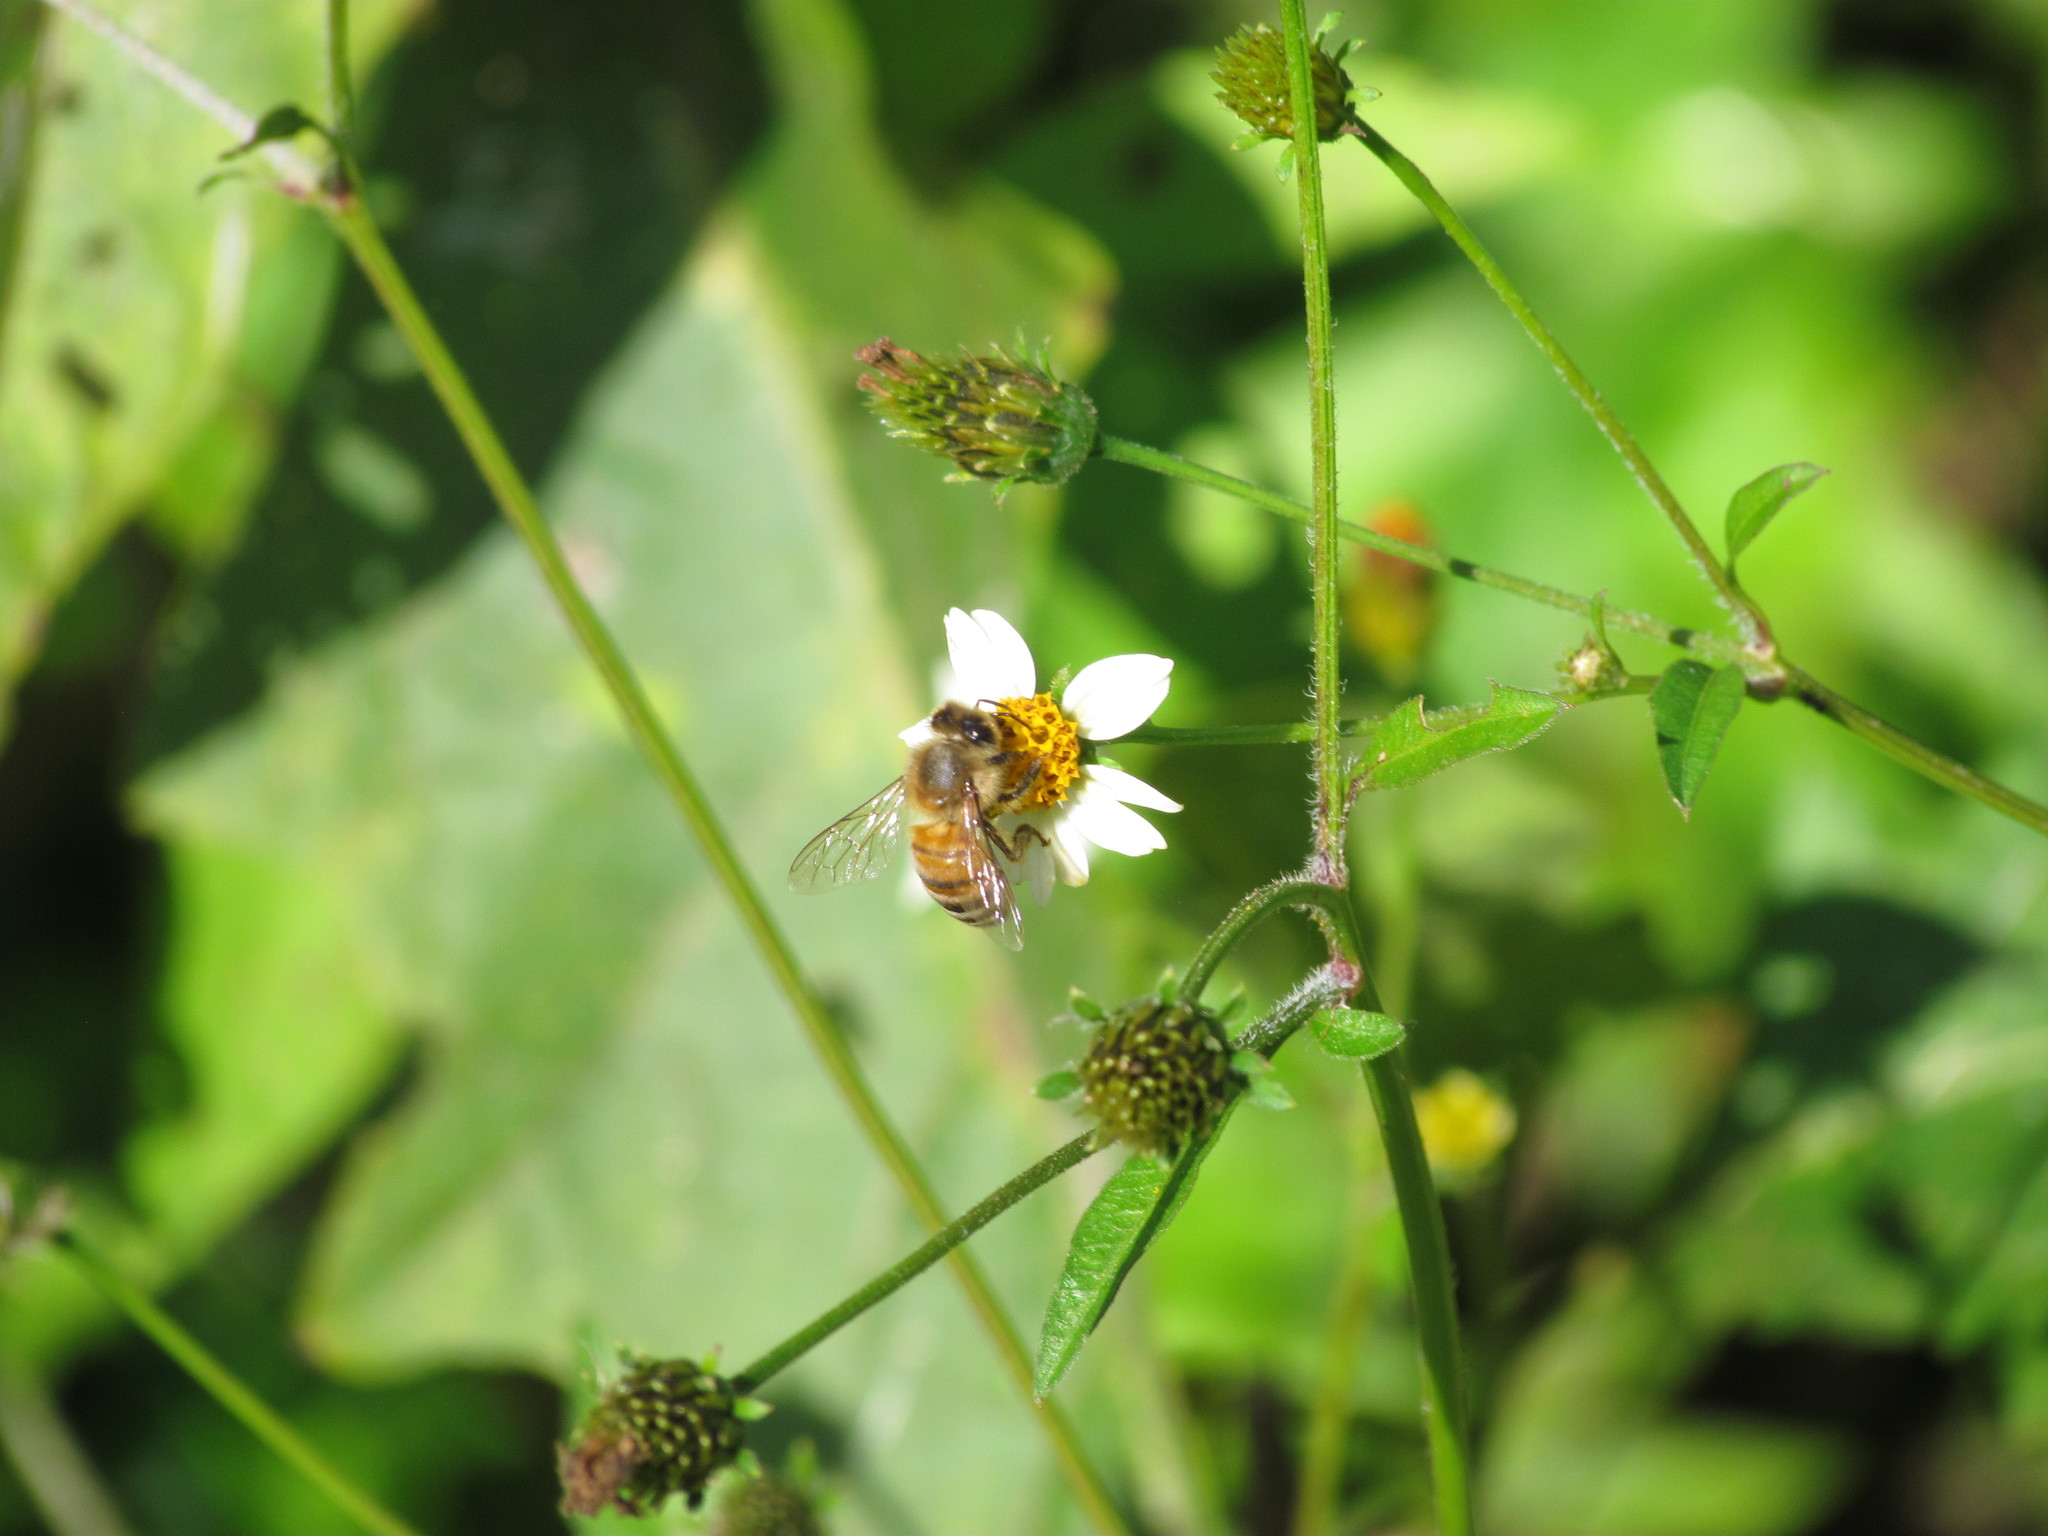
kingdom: Animalia
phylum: Arthropoda
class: Insecta
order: Hymenoptera
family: Apidae
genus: Apis
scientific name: Apis mellifera
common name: Honey bee
